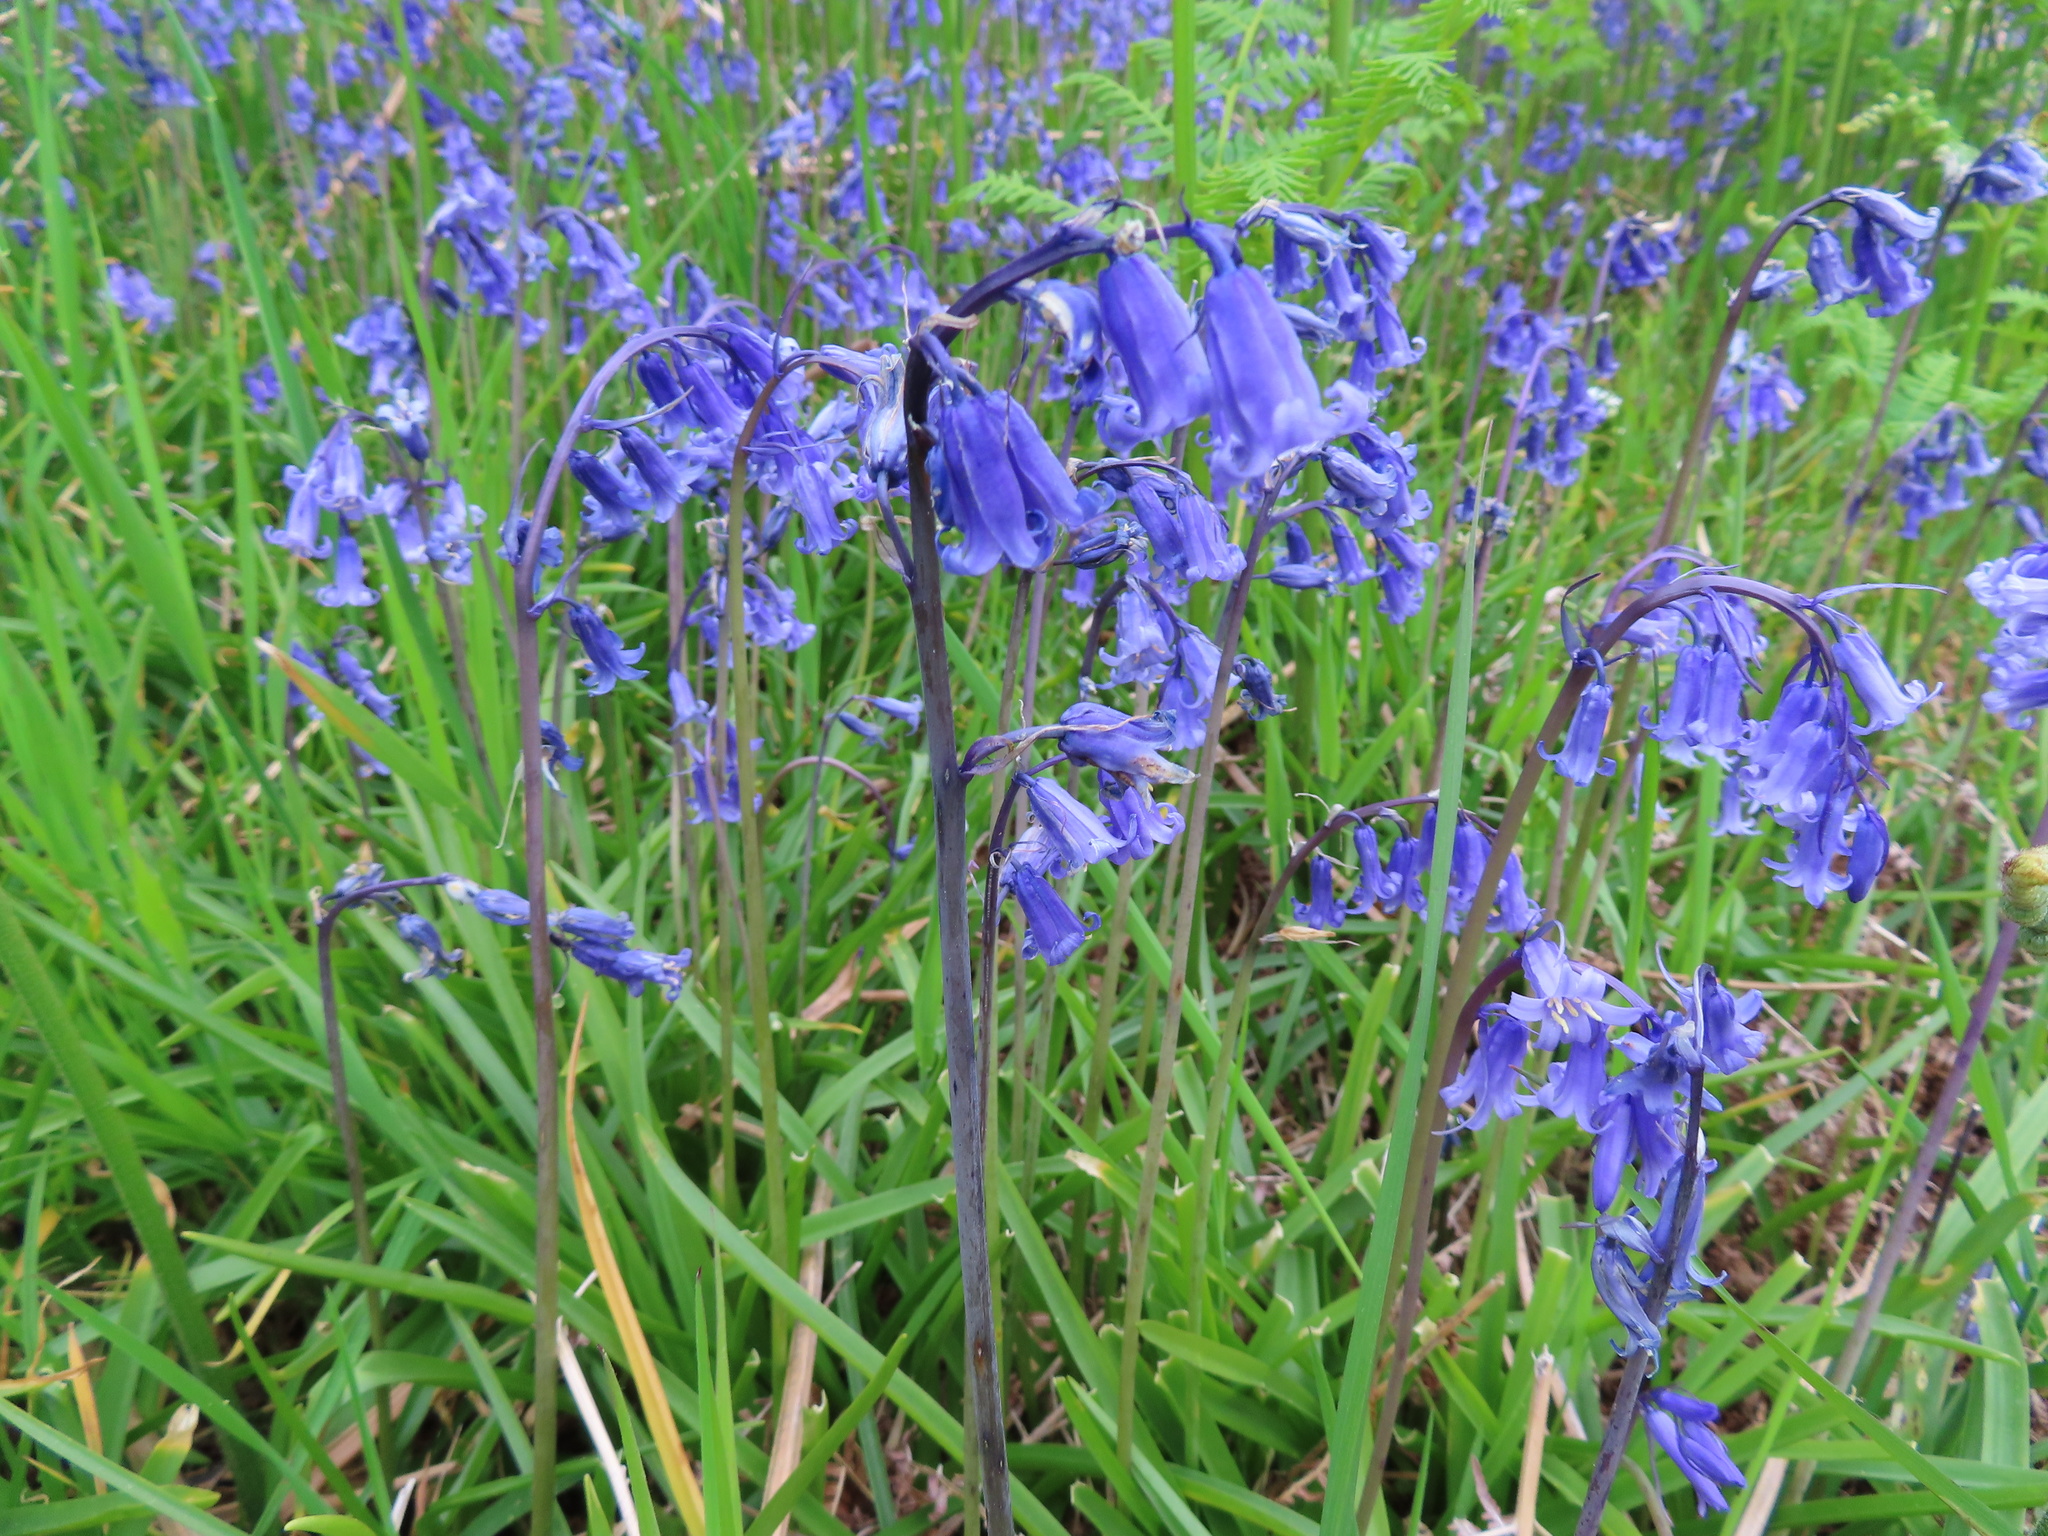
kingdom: Plantae
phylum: Tracheophyta
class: Liliopsida
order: Asparagales
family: Asparagaceae
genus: Hyacinthoides
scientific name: Hyacinthoides non-scripta
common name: Bluebell
